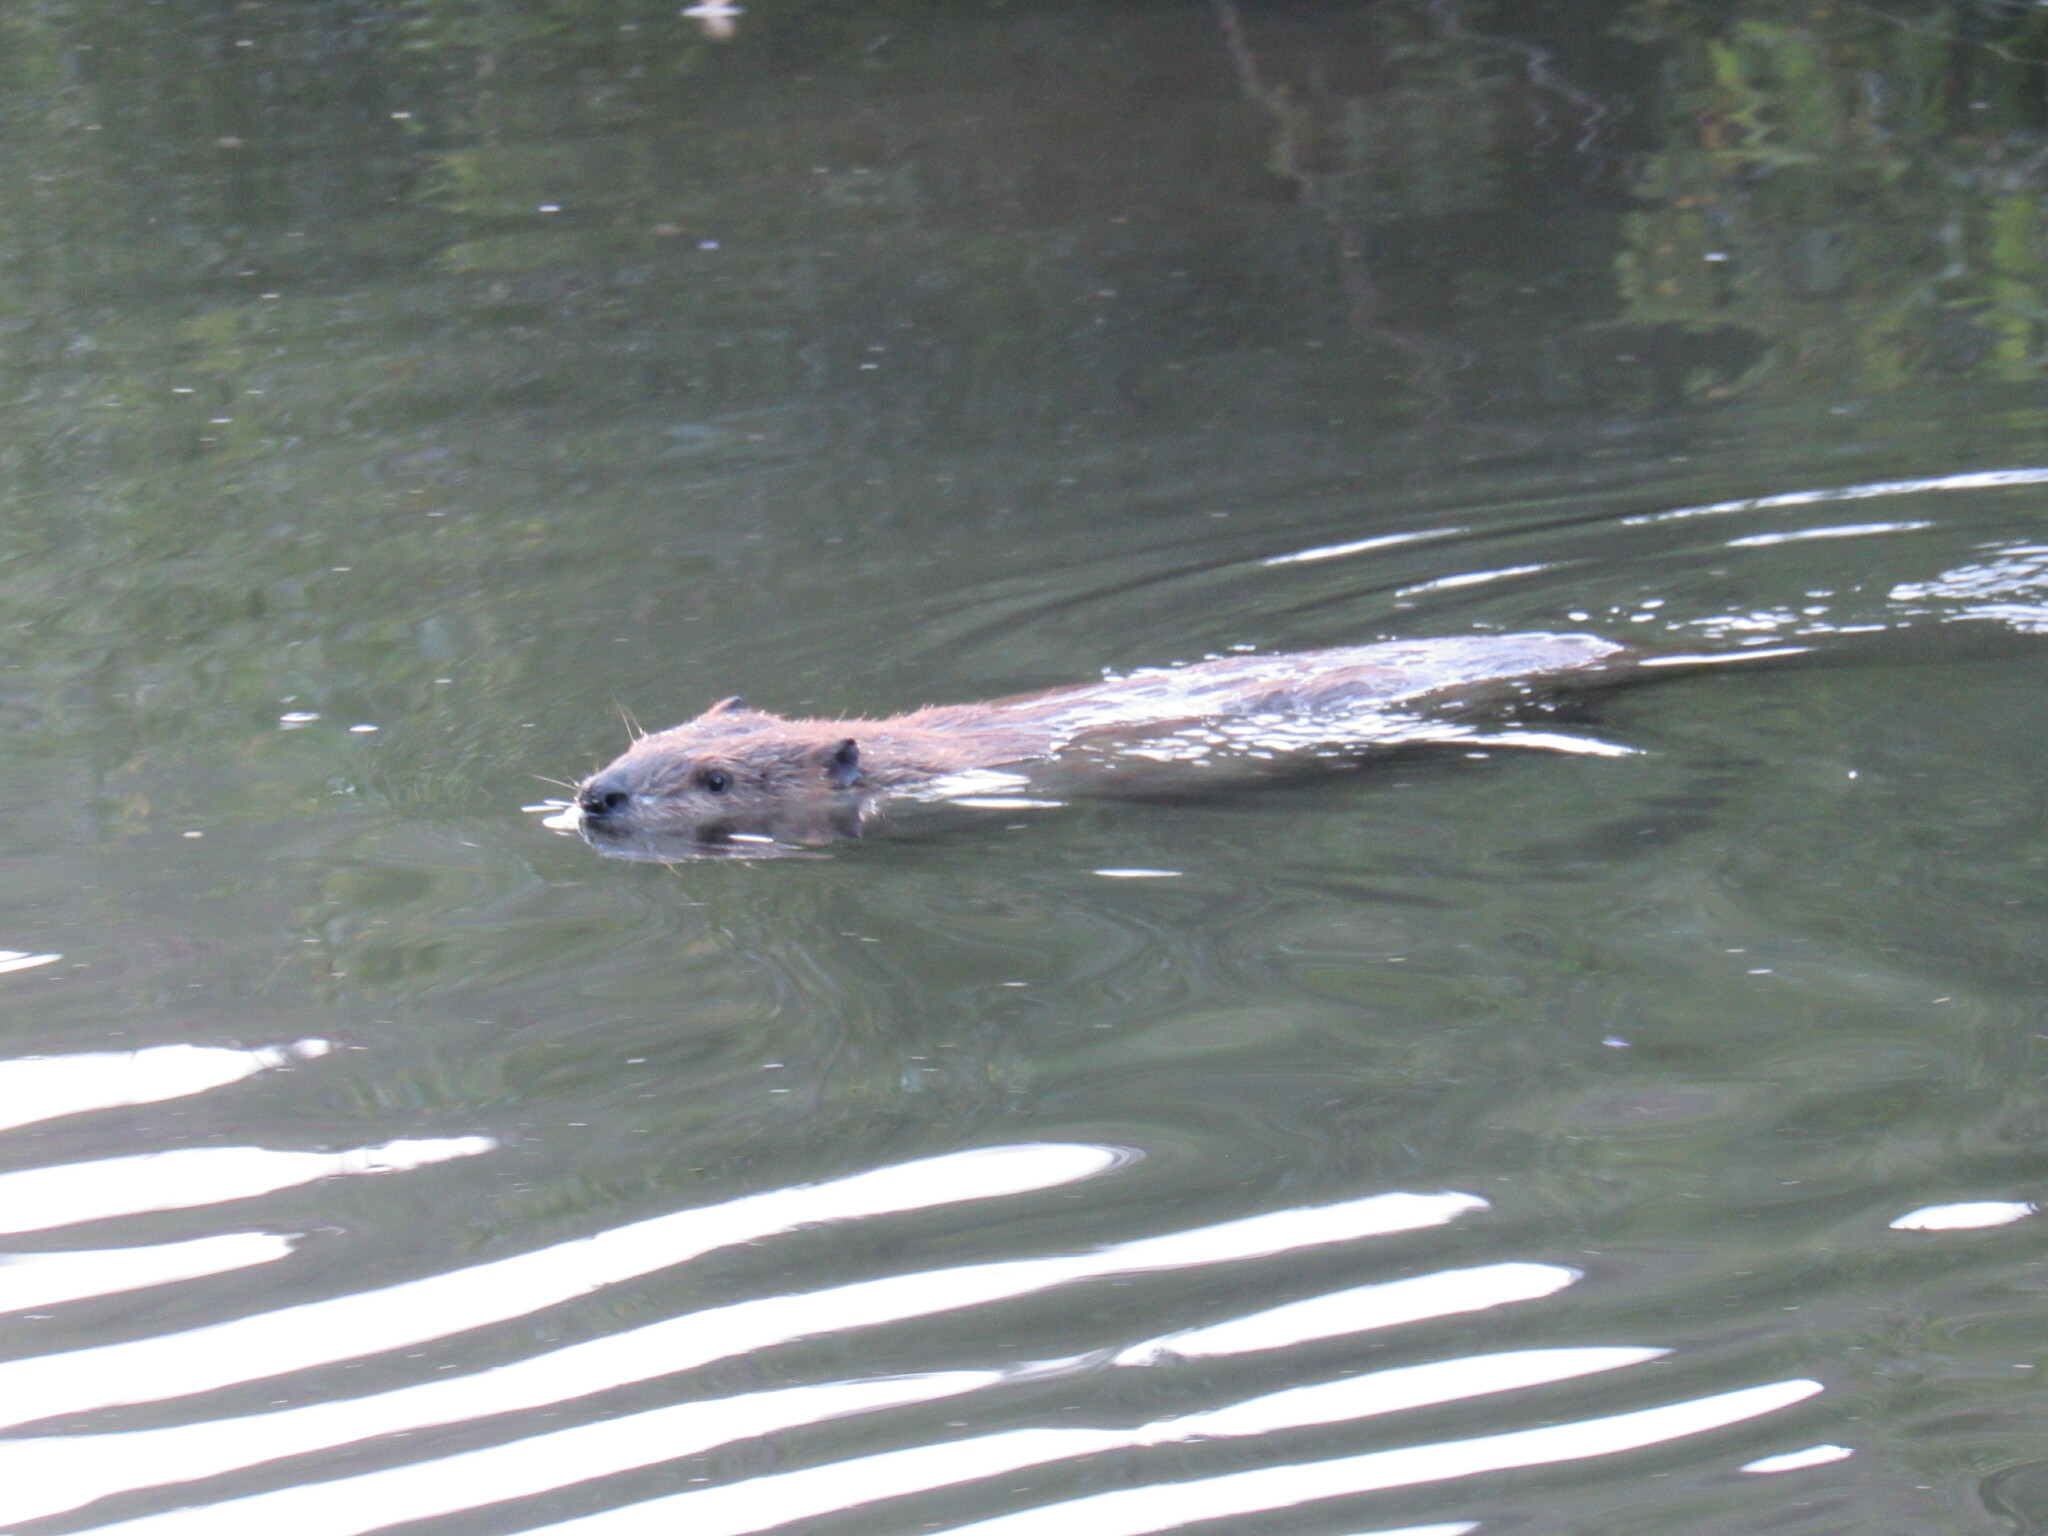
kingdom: Animalia
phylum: Chordata
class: Mammalia
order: Rodentia
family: Castoridae
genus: Castor
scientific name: Castor canadensis
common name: American beaver
